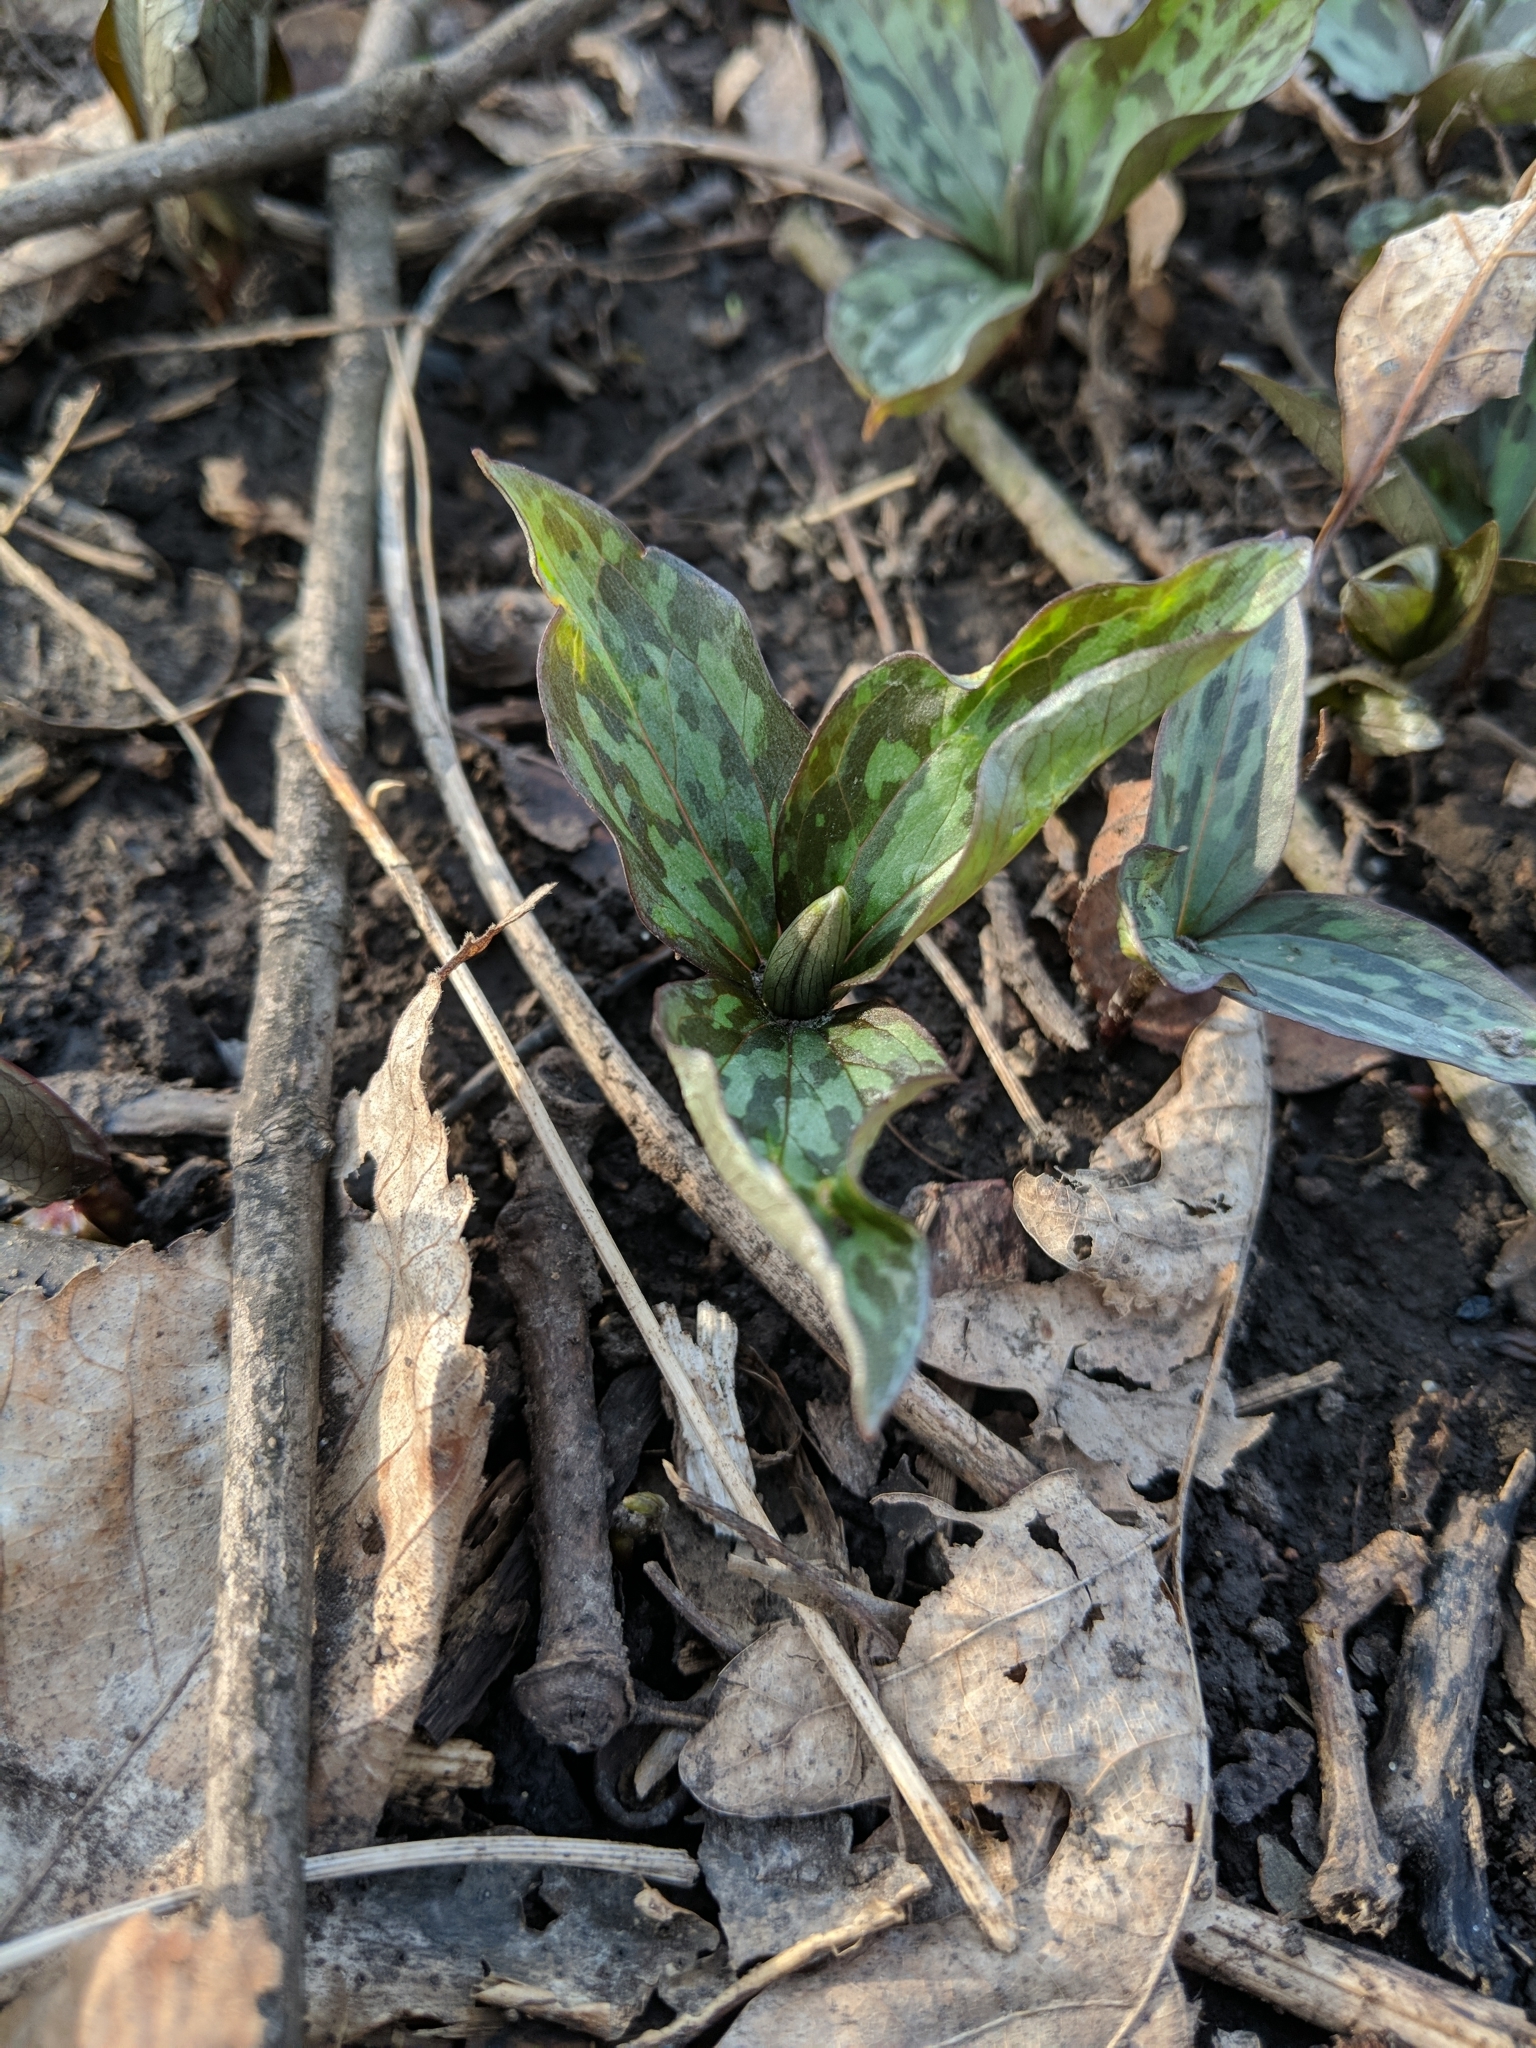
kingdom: Plantae
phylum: Tracheophyta
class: Liliopsida
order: Liliales
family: Melanthiaceae
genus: Trillium
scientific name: Trillium recurvatum
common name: Bloody butcher
